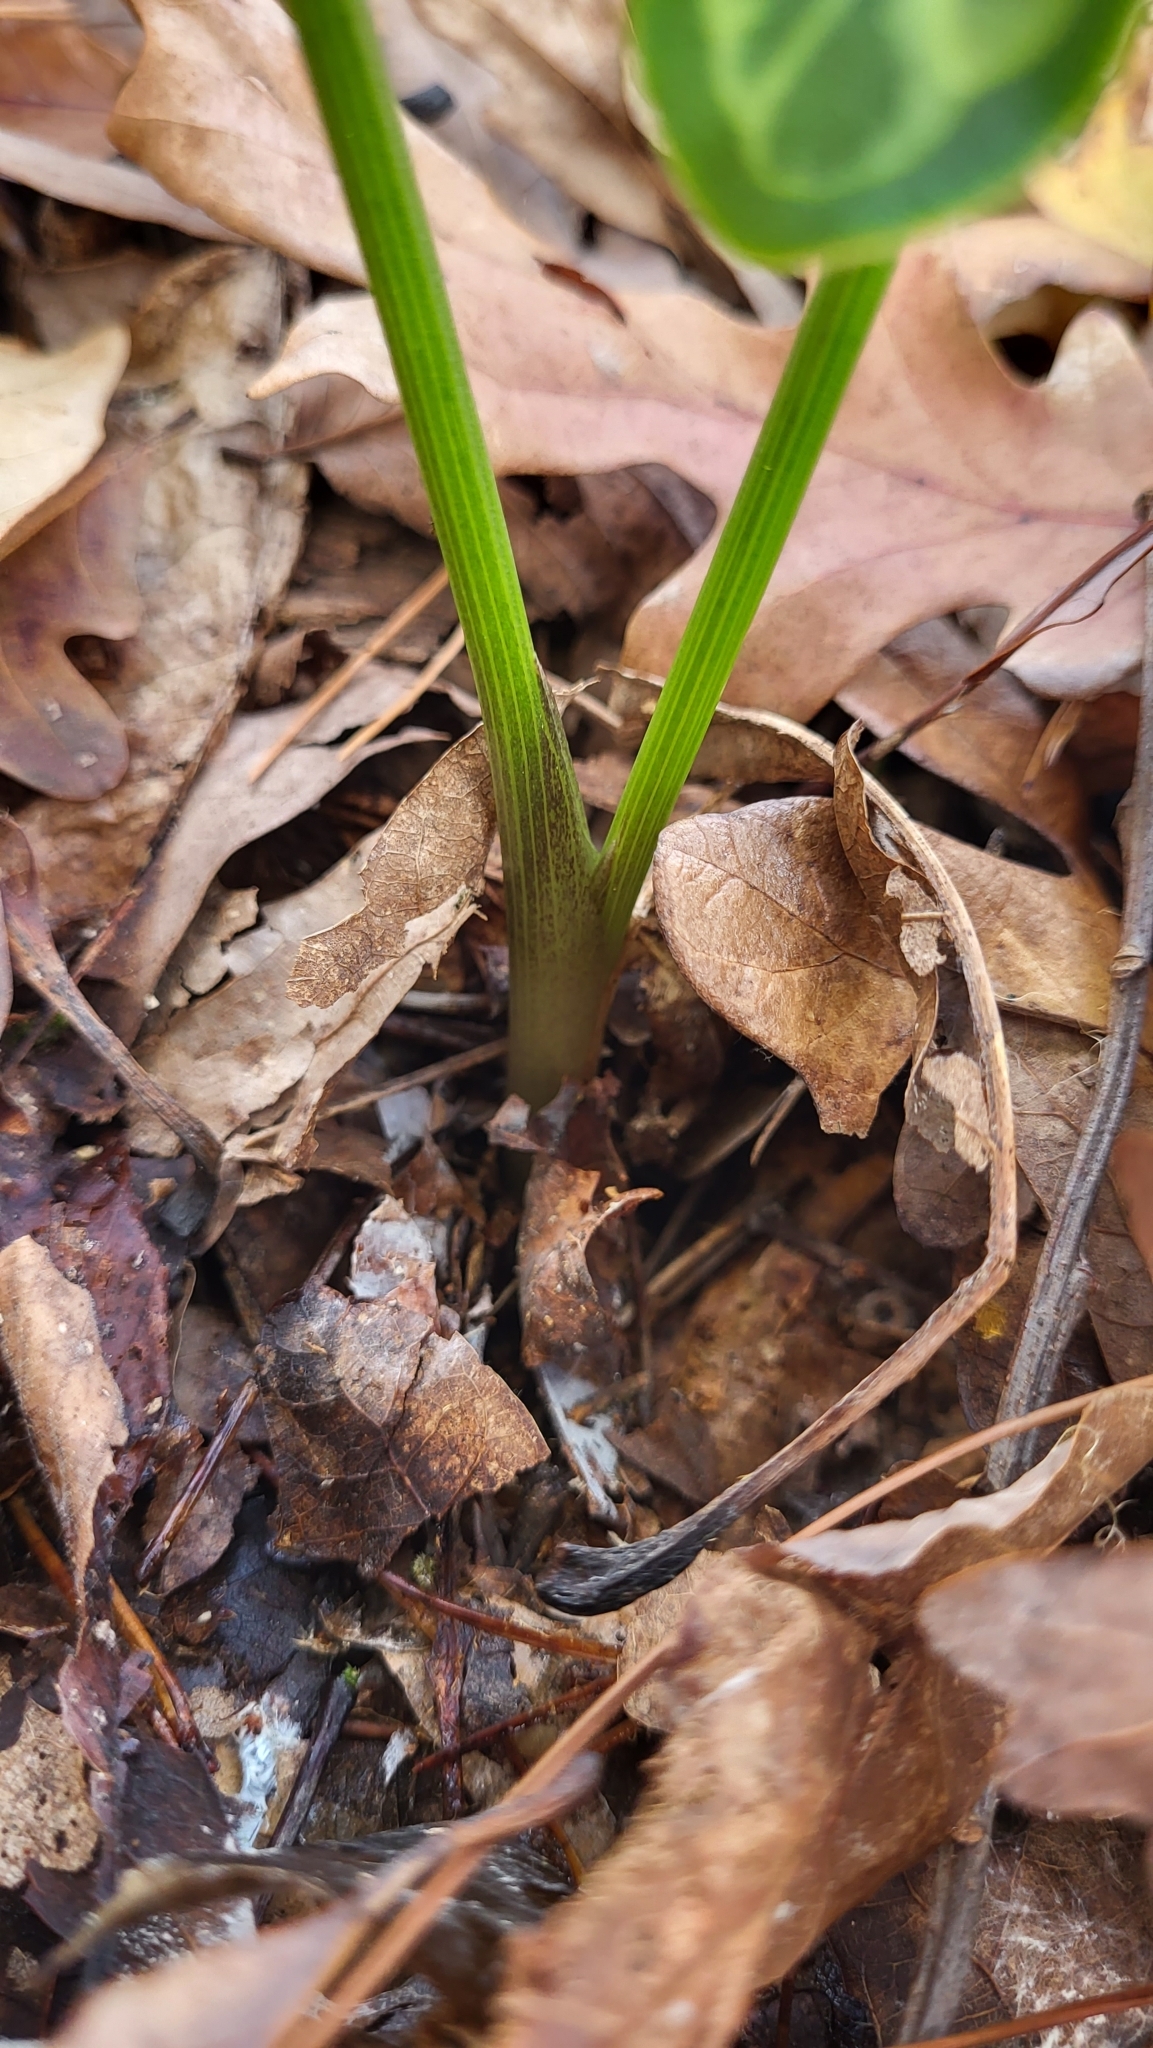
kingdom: Plantae
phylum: Tracheophyta
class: Liliopsida
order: Alismatales
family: Araceae
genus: Arum
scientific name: Arum italicum
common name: Italian lords-and-ladies
